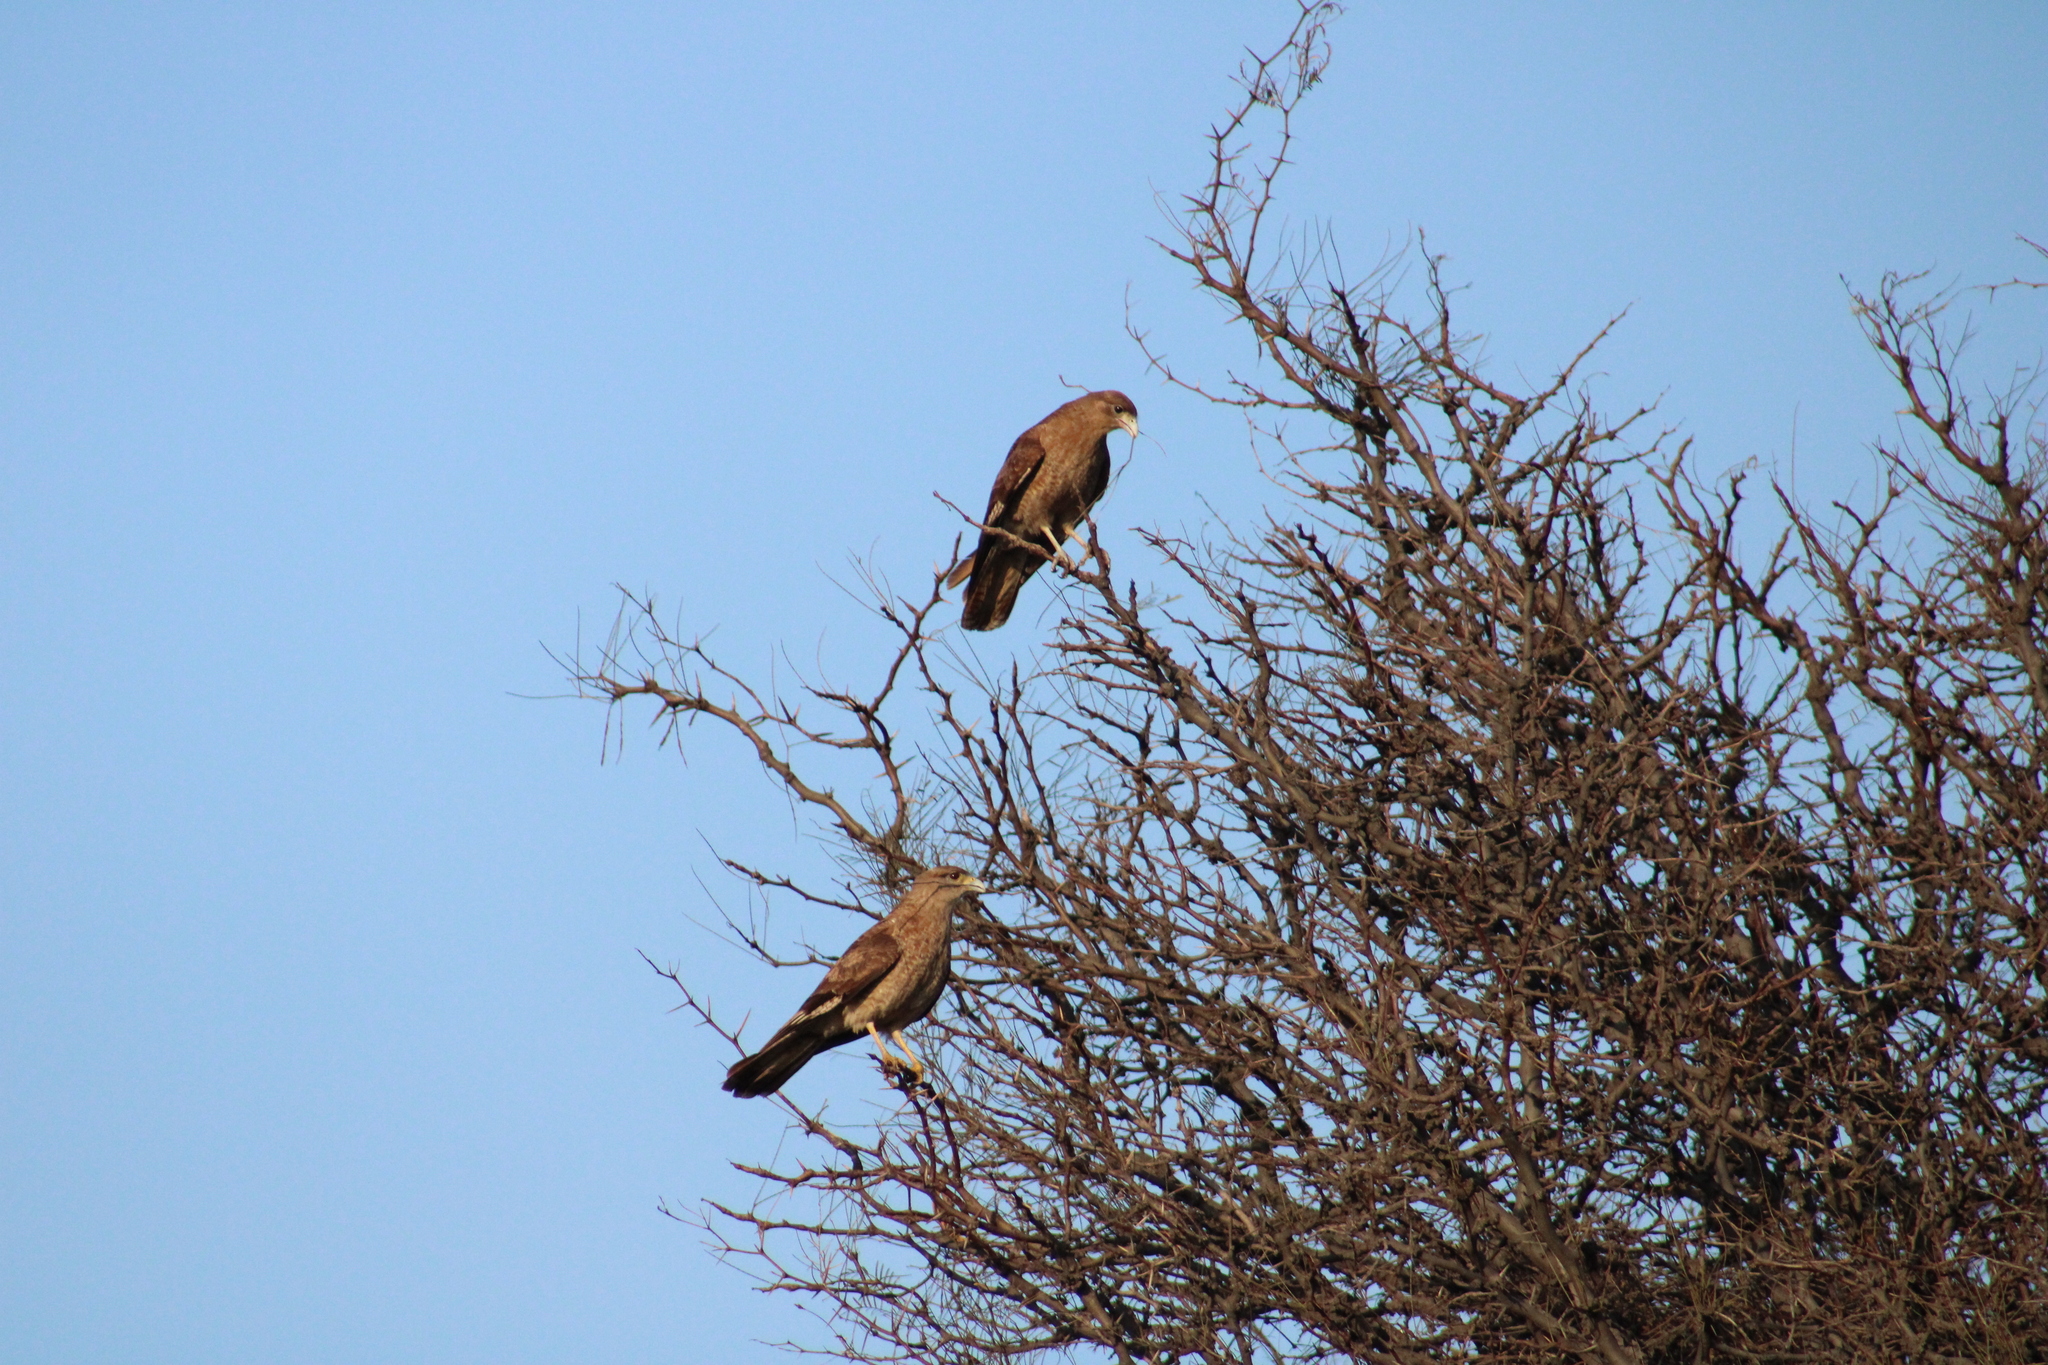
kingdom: Animalia
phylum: Chordata
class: Aves
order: Falconiformes
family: Falconidae
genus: Daptrius
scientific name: Daptrius
